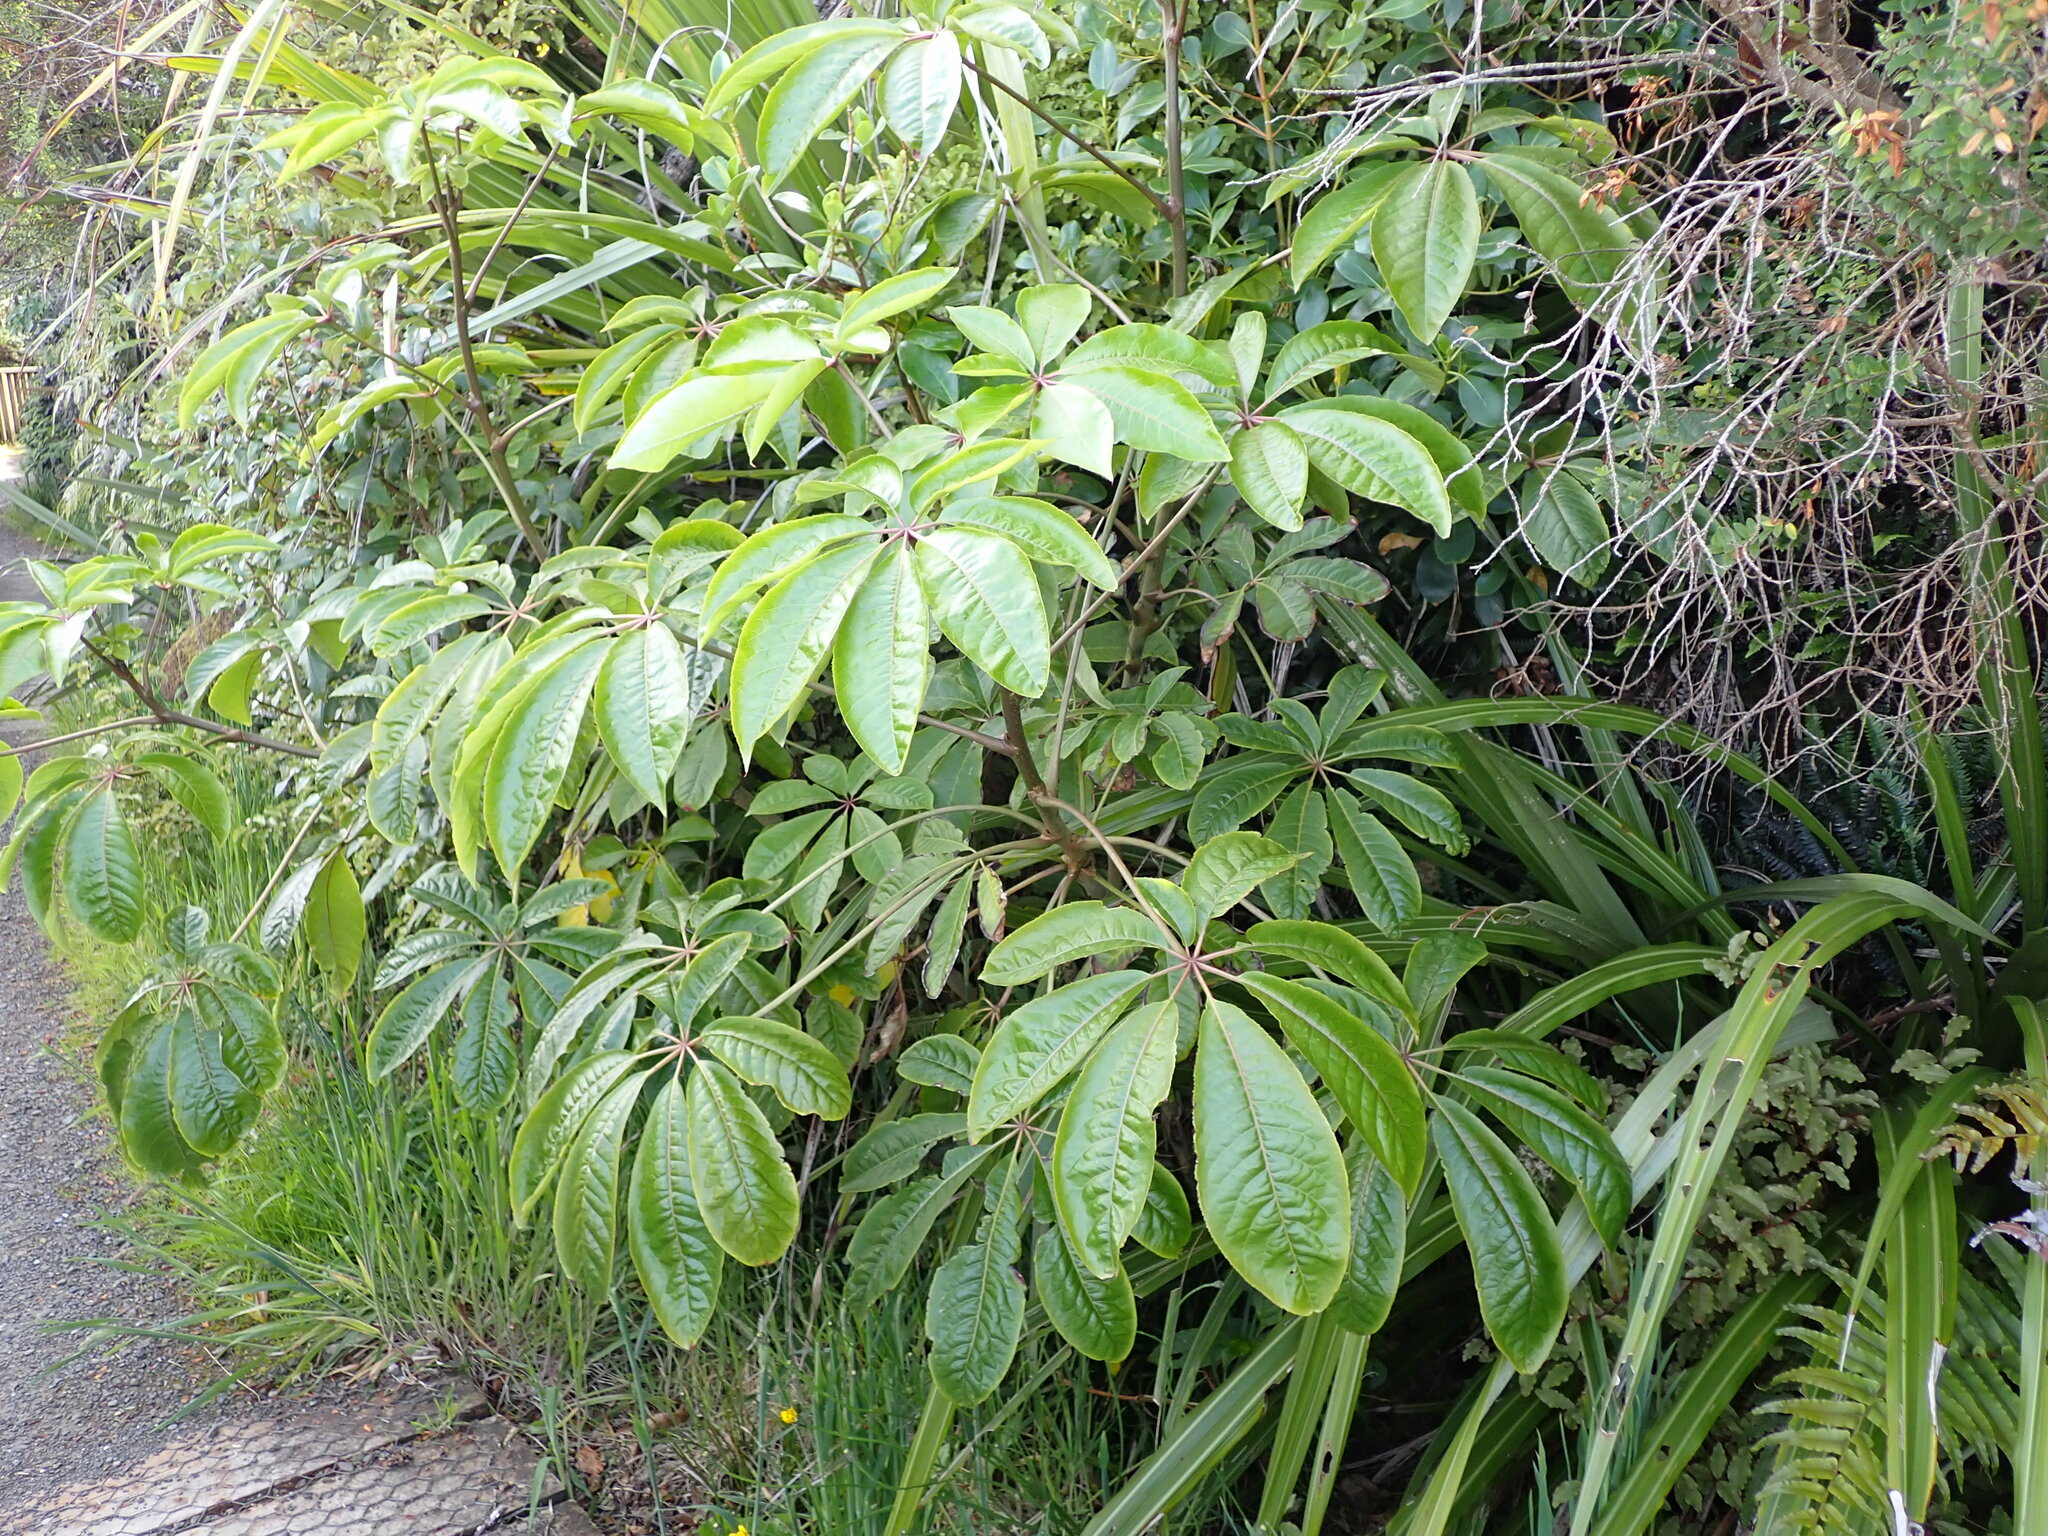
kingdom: Plantae
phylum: Tracheophyta
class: Magnoliopsida
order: Apiales
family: Araliaceae
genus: Schefflera
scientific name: Schefflera digitata
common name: Pate
